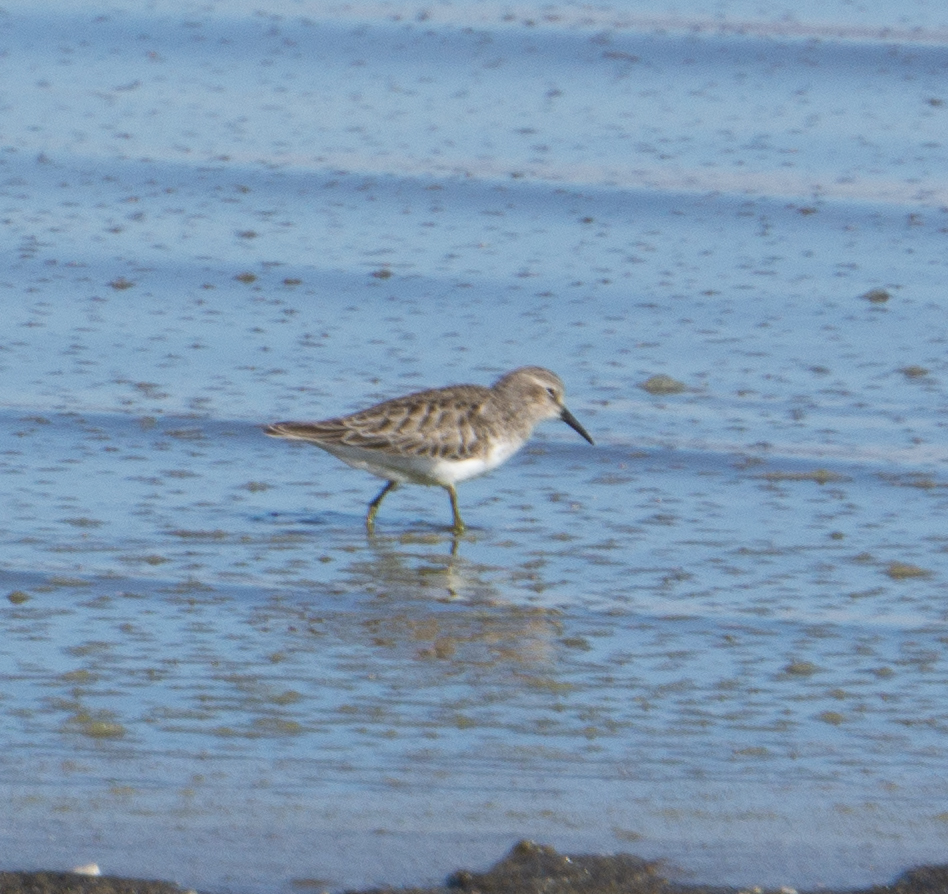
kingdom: Animalia
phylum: Chordata
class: Aves
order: Charadriiformes
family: Scolopacidae
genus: Calidris
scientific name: Calidris minutilla
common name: Least sandpiper
